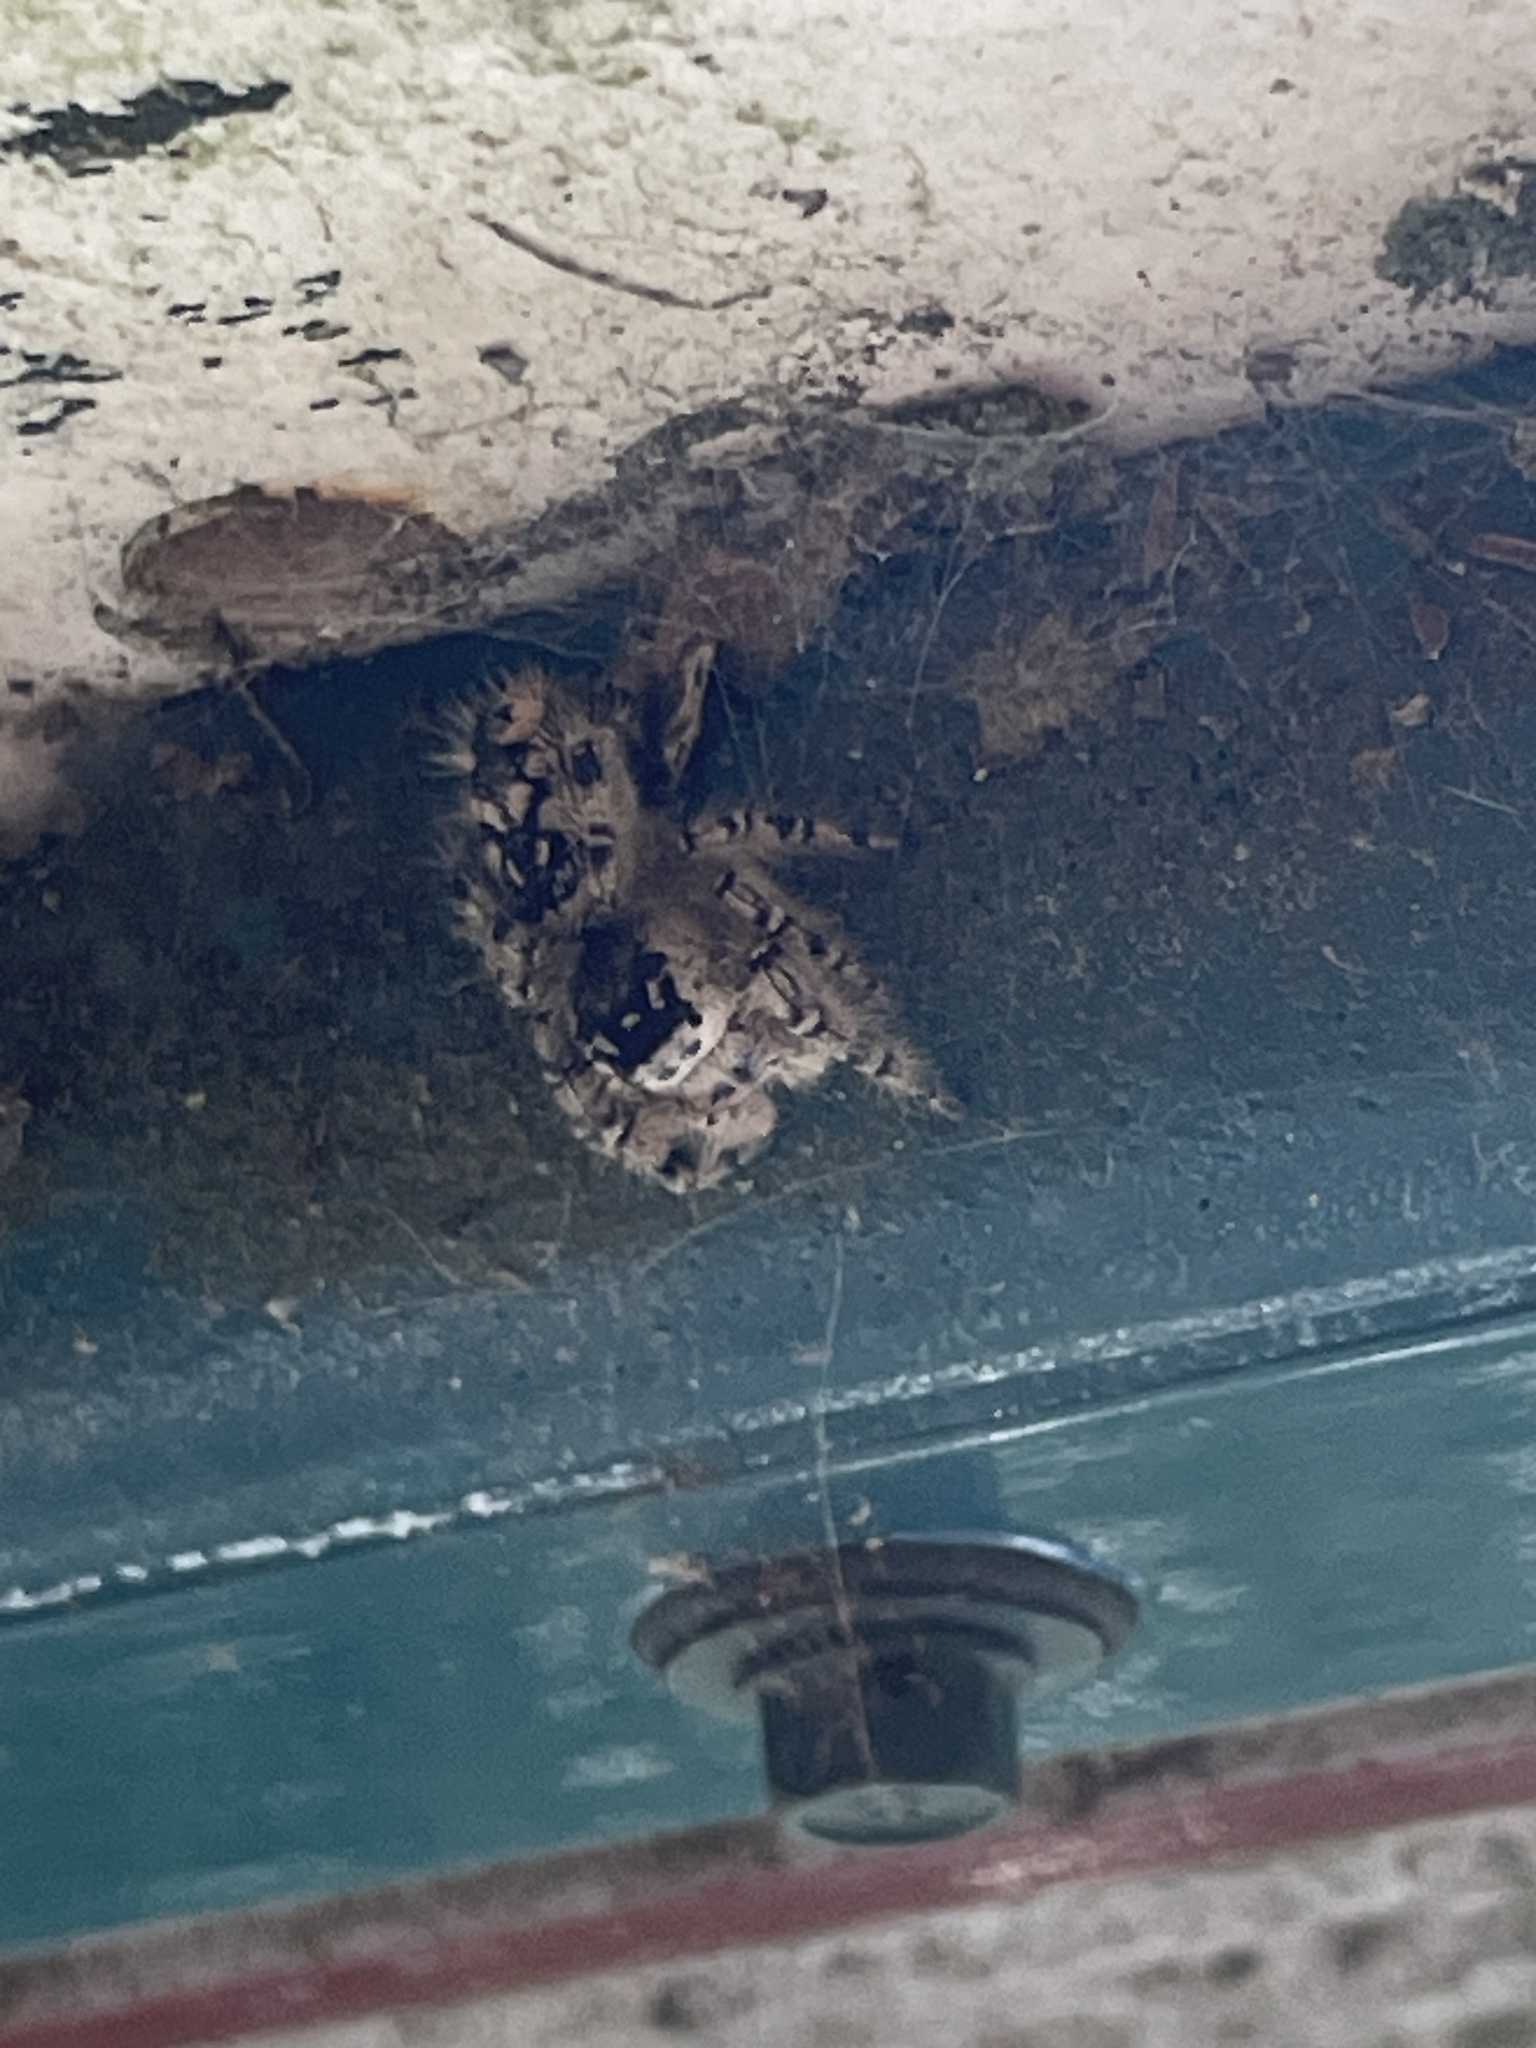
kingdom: Animalia
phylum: Arthropoda
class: Arachnida
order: Araneae
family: Salticidae
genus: Phidippus
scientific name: Phidippus otiosus
